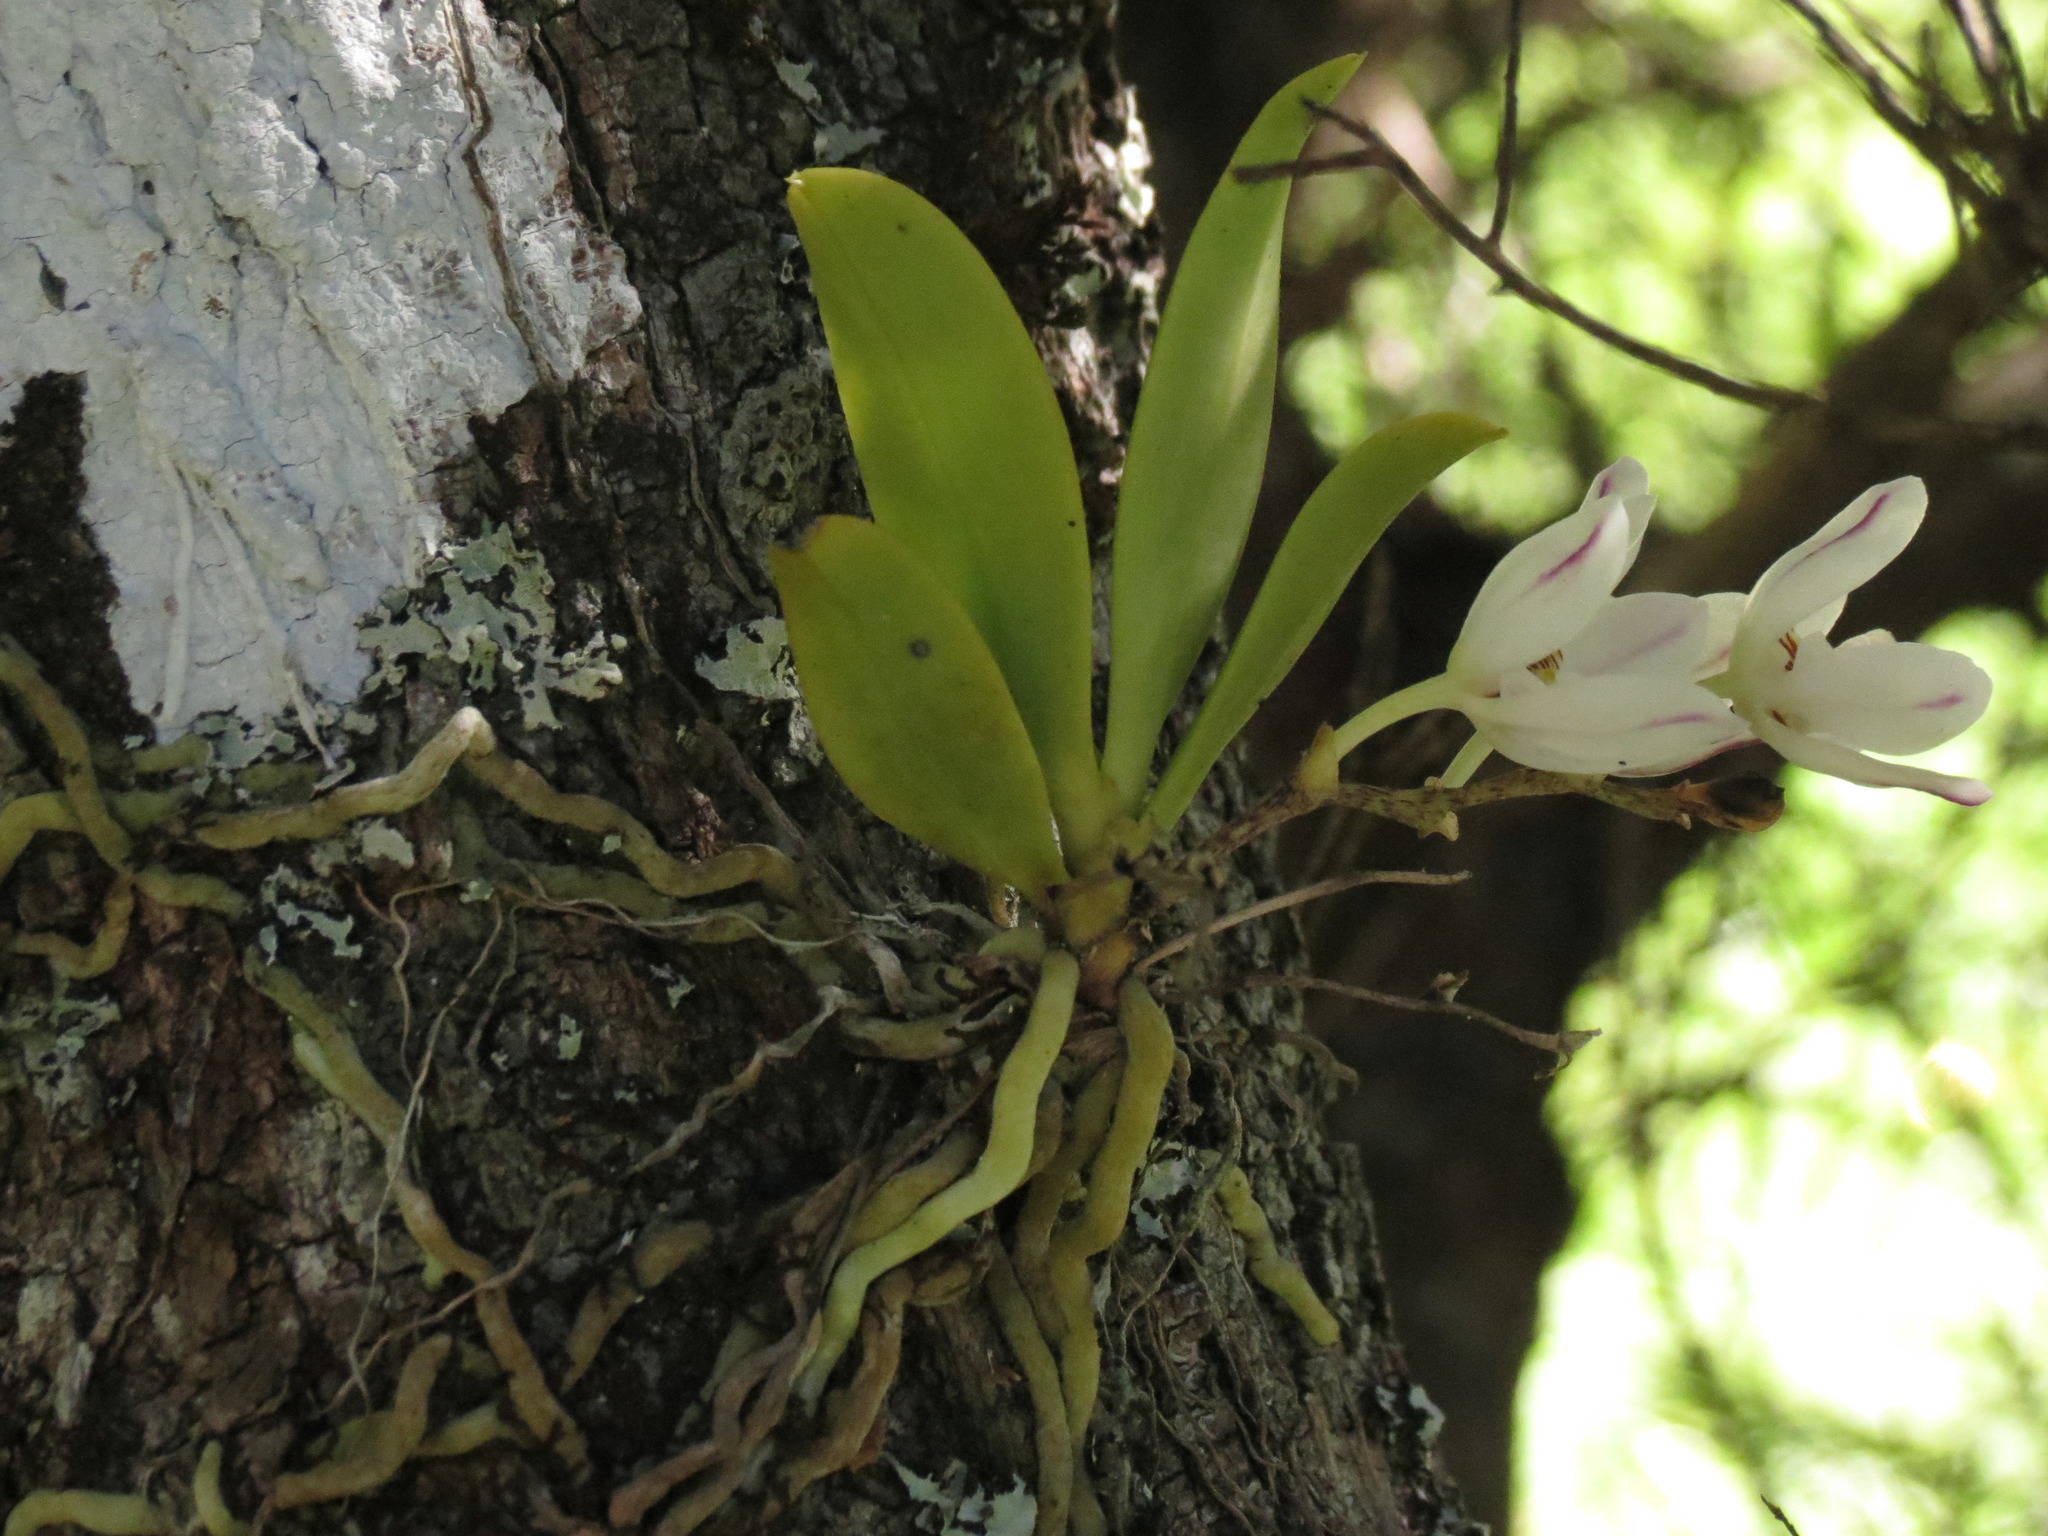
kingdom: Plantae
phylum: Tracheophyta
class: Liliopsida
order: Asparagales
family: Orchidaceae
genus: Sarcochilus
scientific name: Sarcochilus falcatus
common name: Orange blossom orchid
